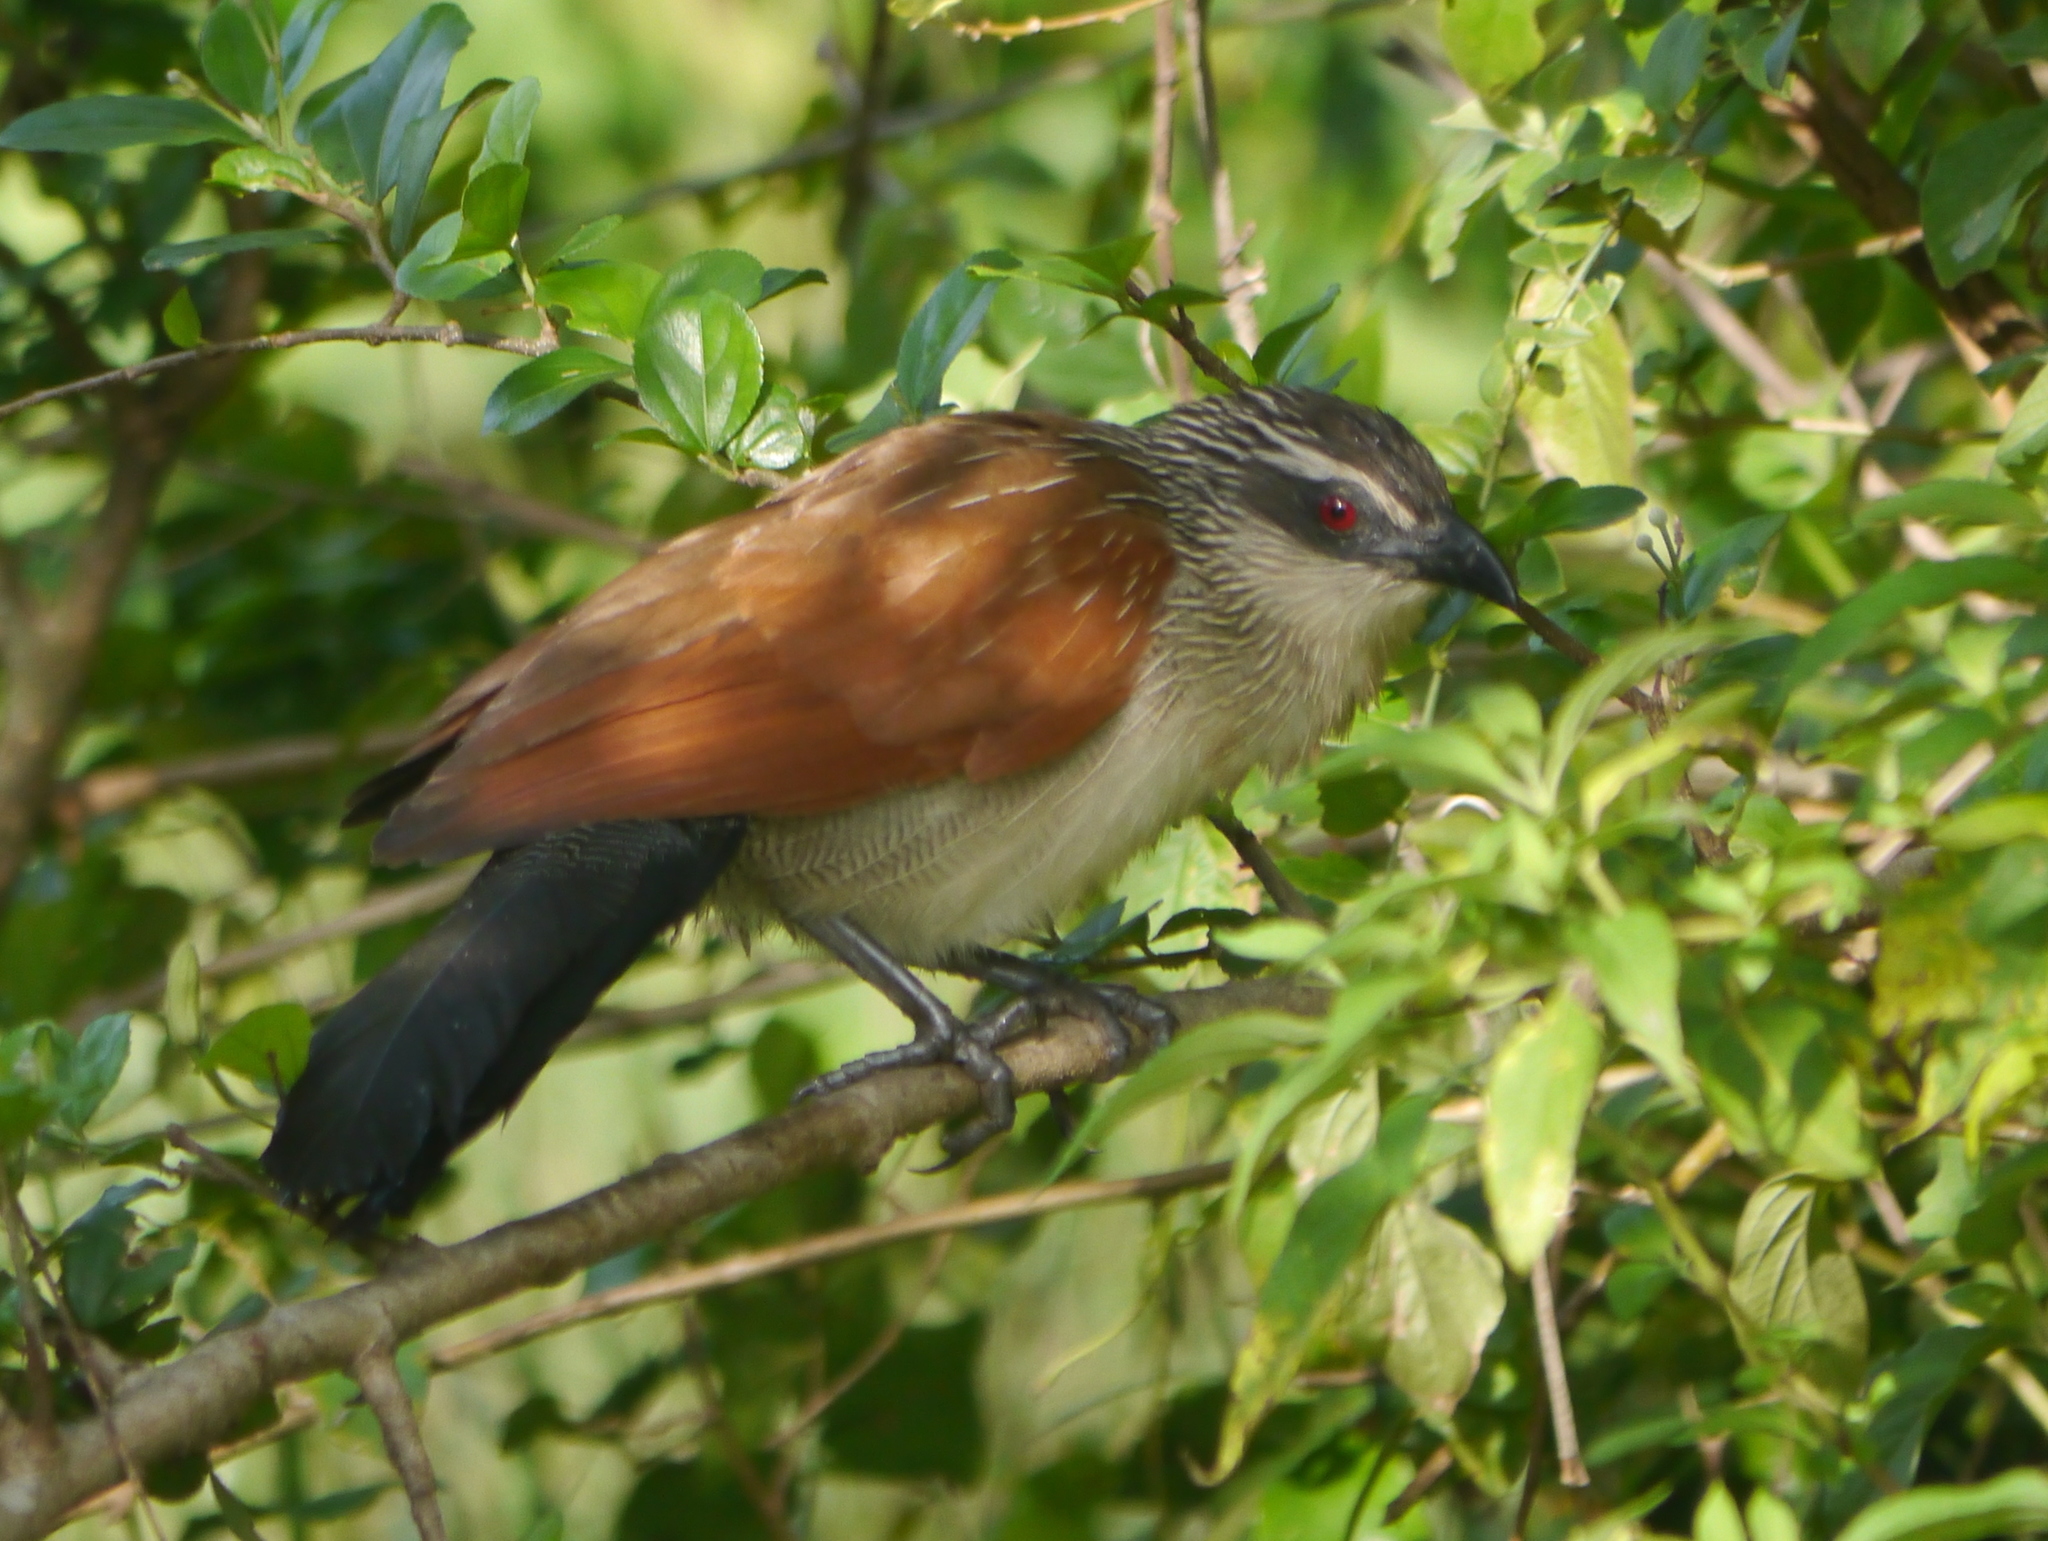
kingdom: Animalia
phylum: Chordata
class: Aves
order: Cuculiformes
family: Cuculidae
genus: Centropus
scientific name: Centropus superciliosus
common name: White-browed coucal
